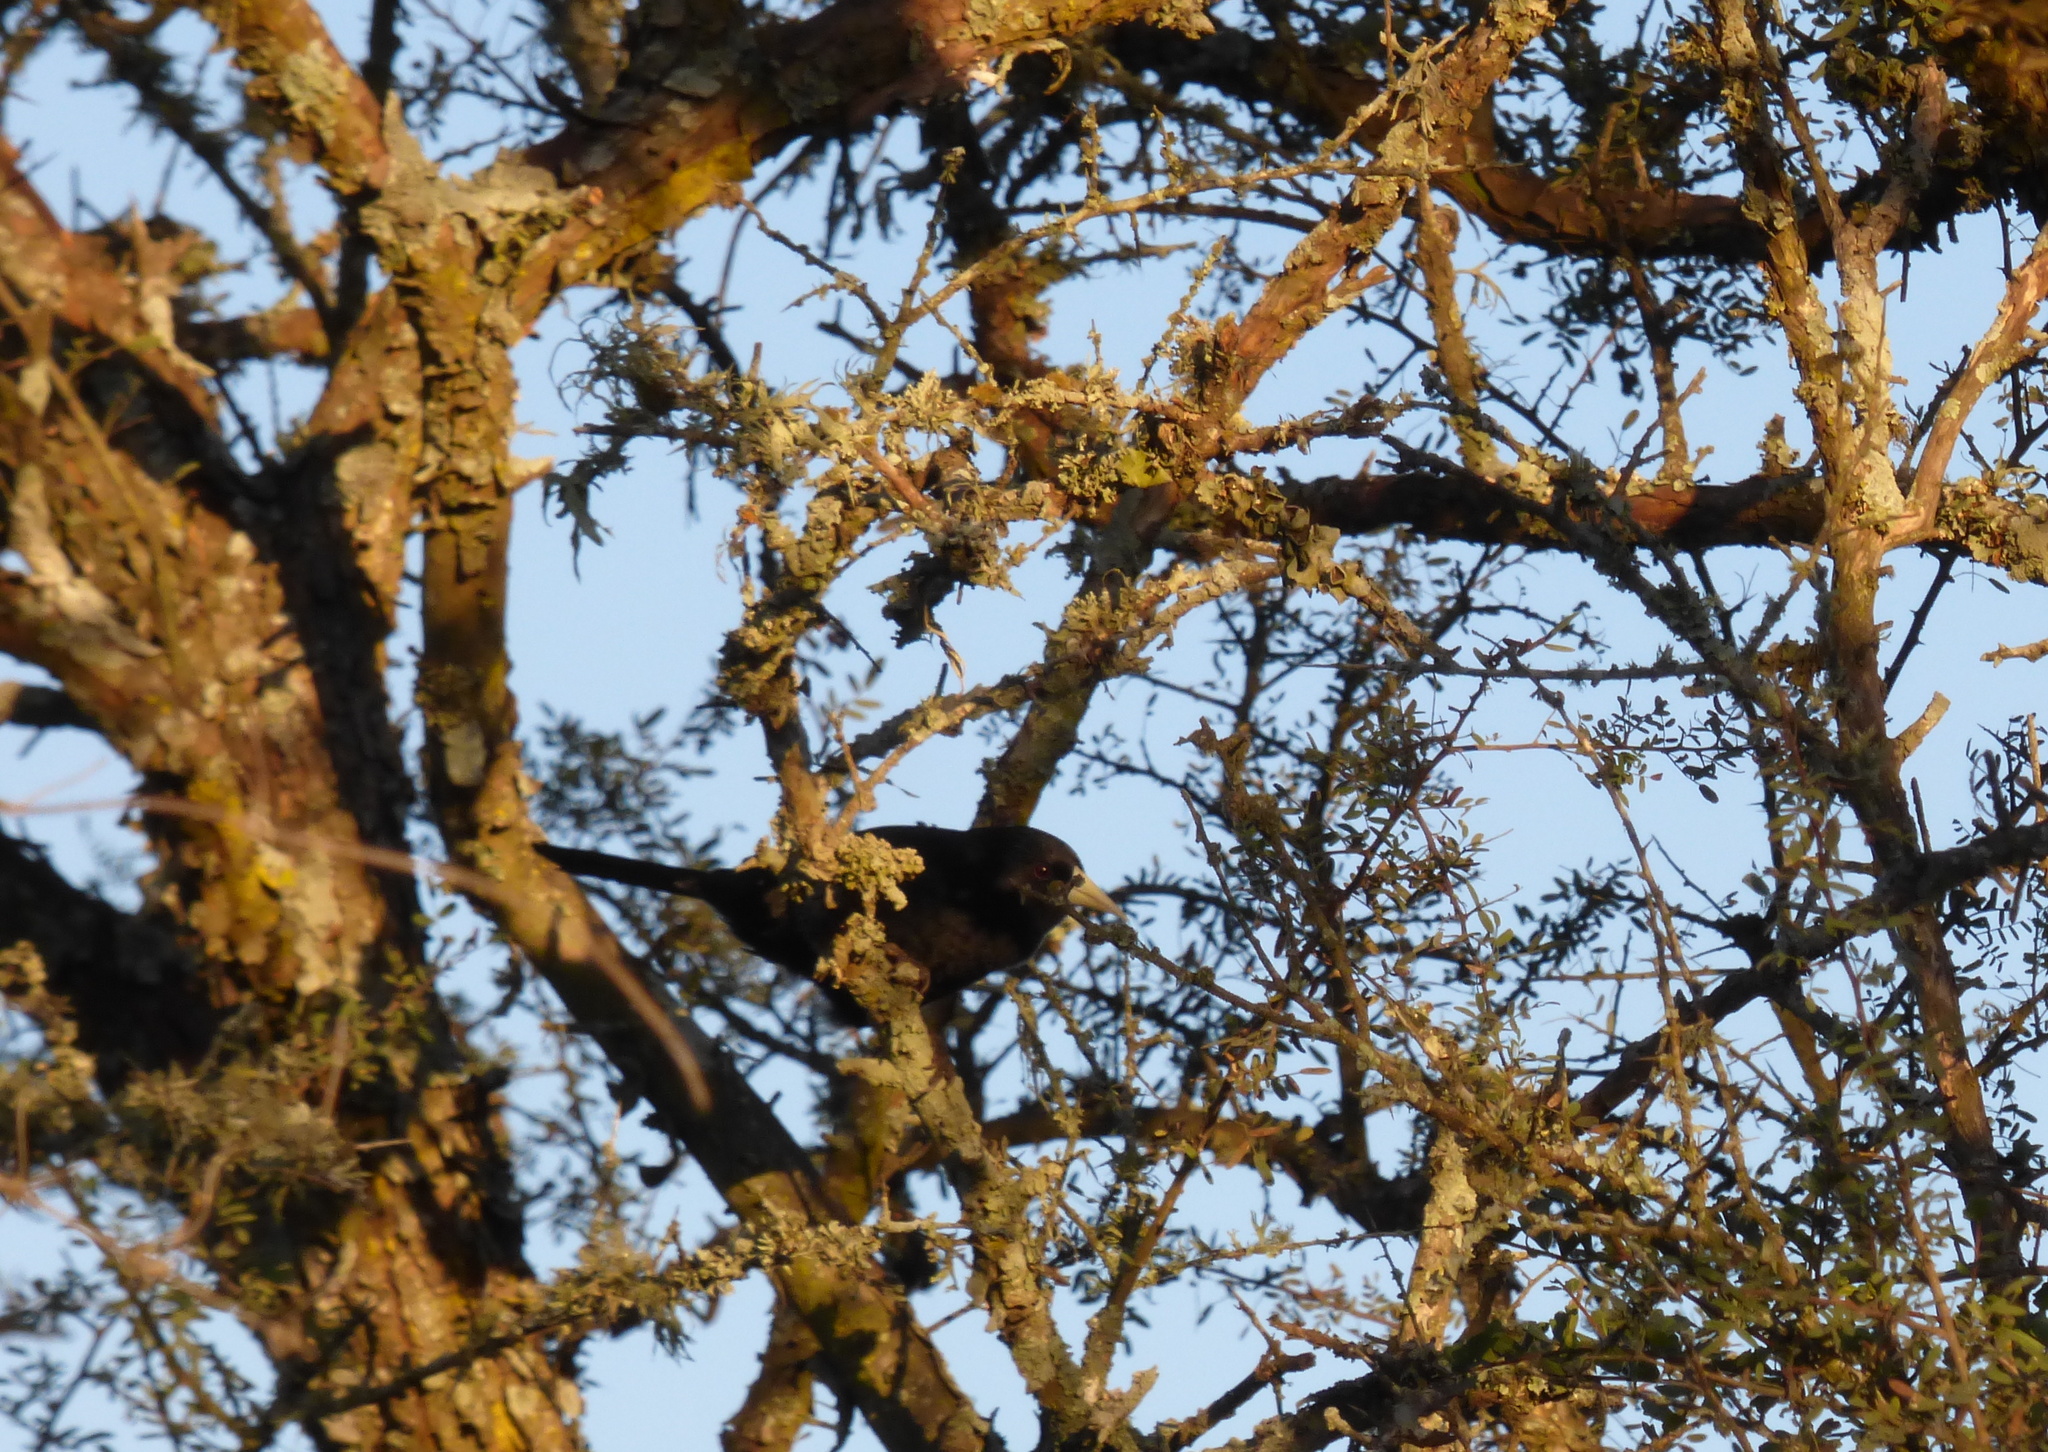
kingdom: Animalia
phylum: Chordata
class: Aves
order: Passeriformes
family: Icteridae
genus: Cacicus
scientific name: Cacicus solitarius
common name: Solitary cacique
